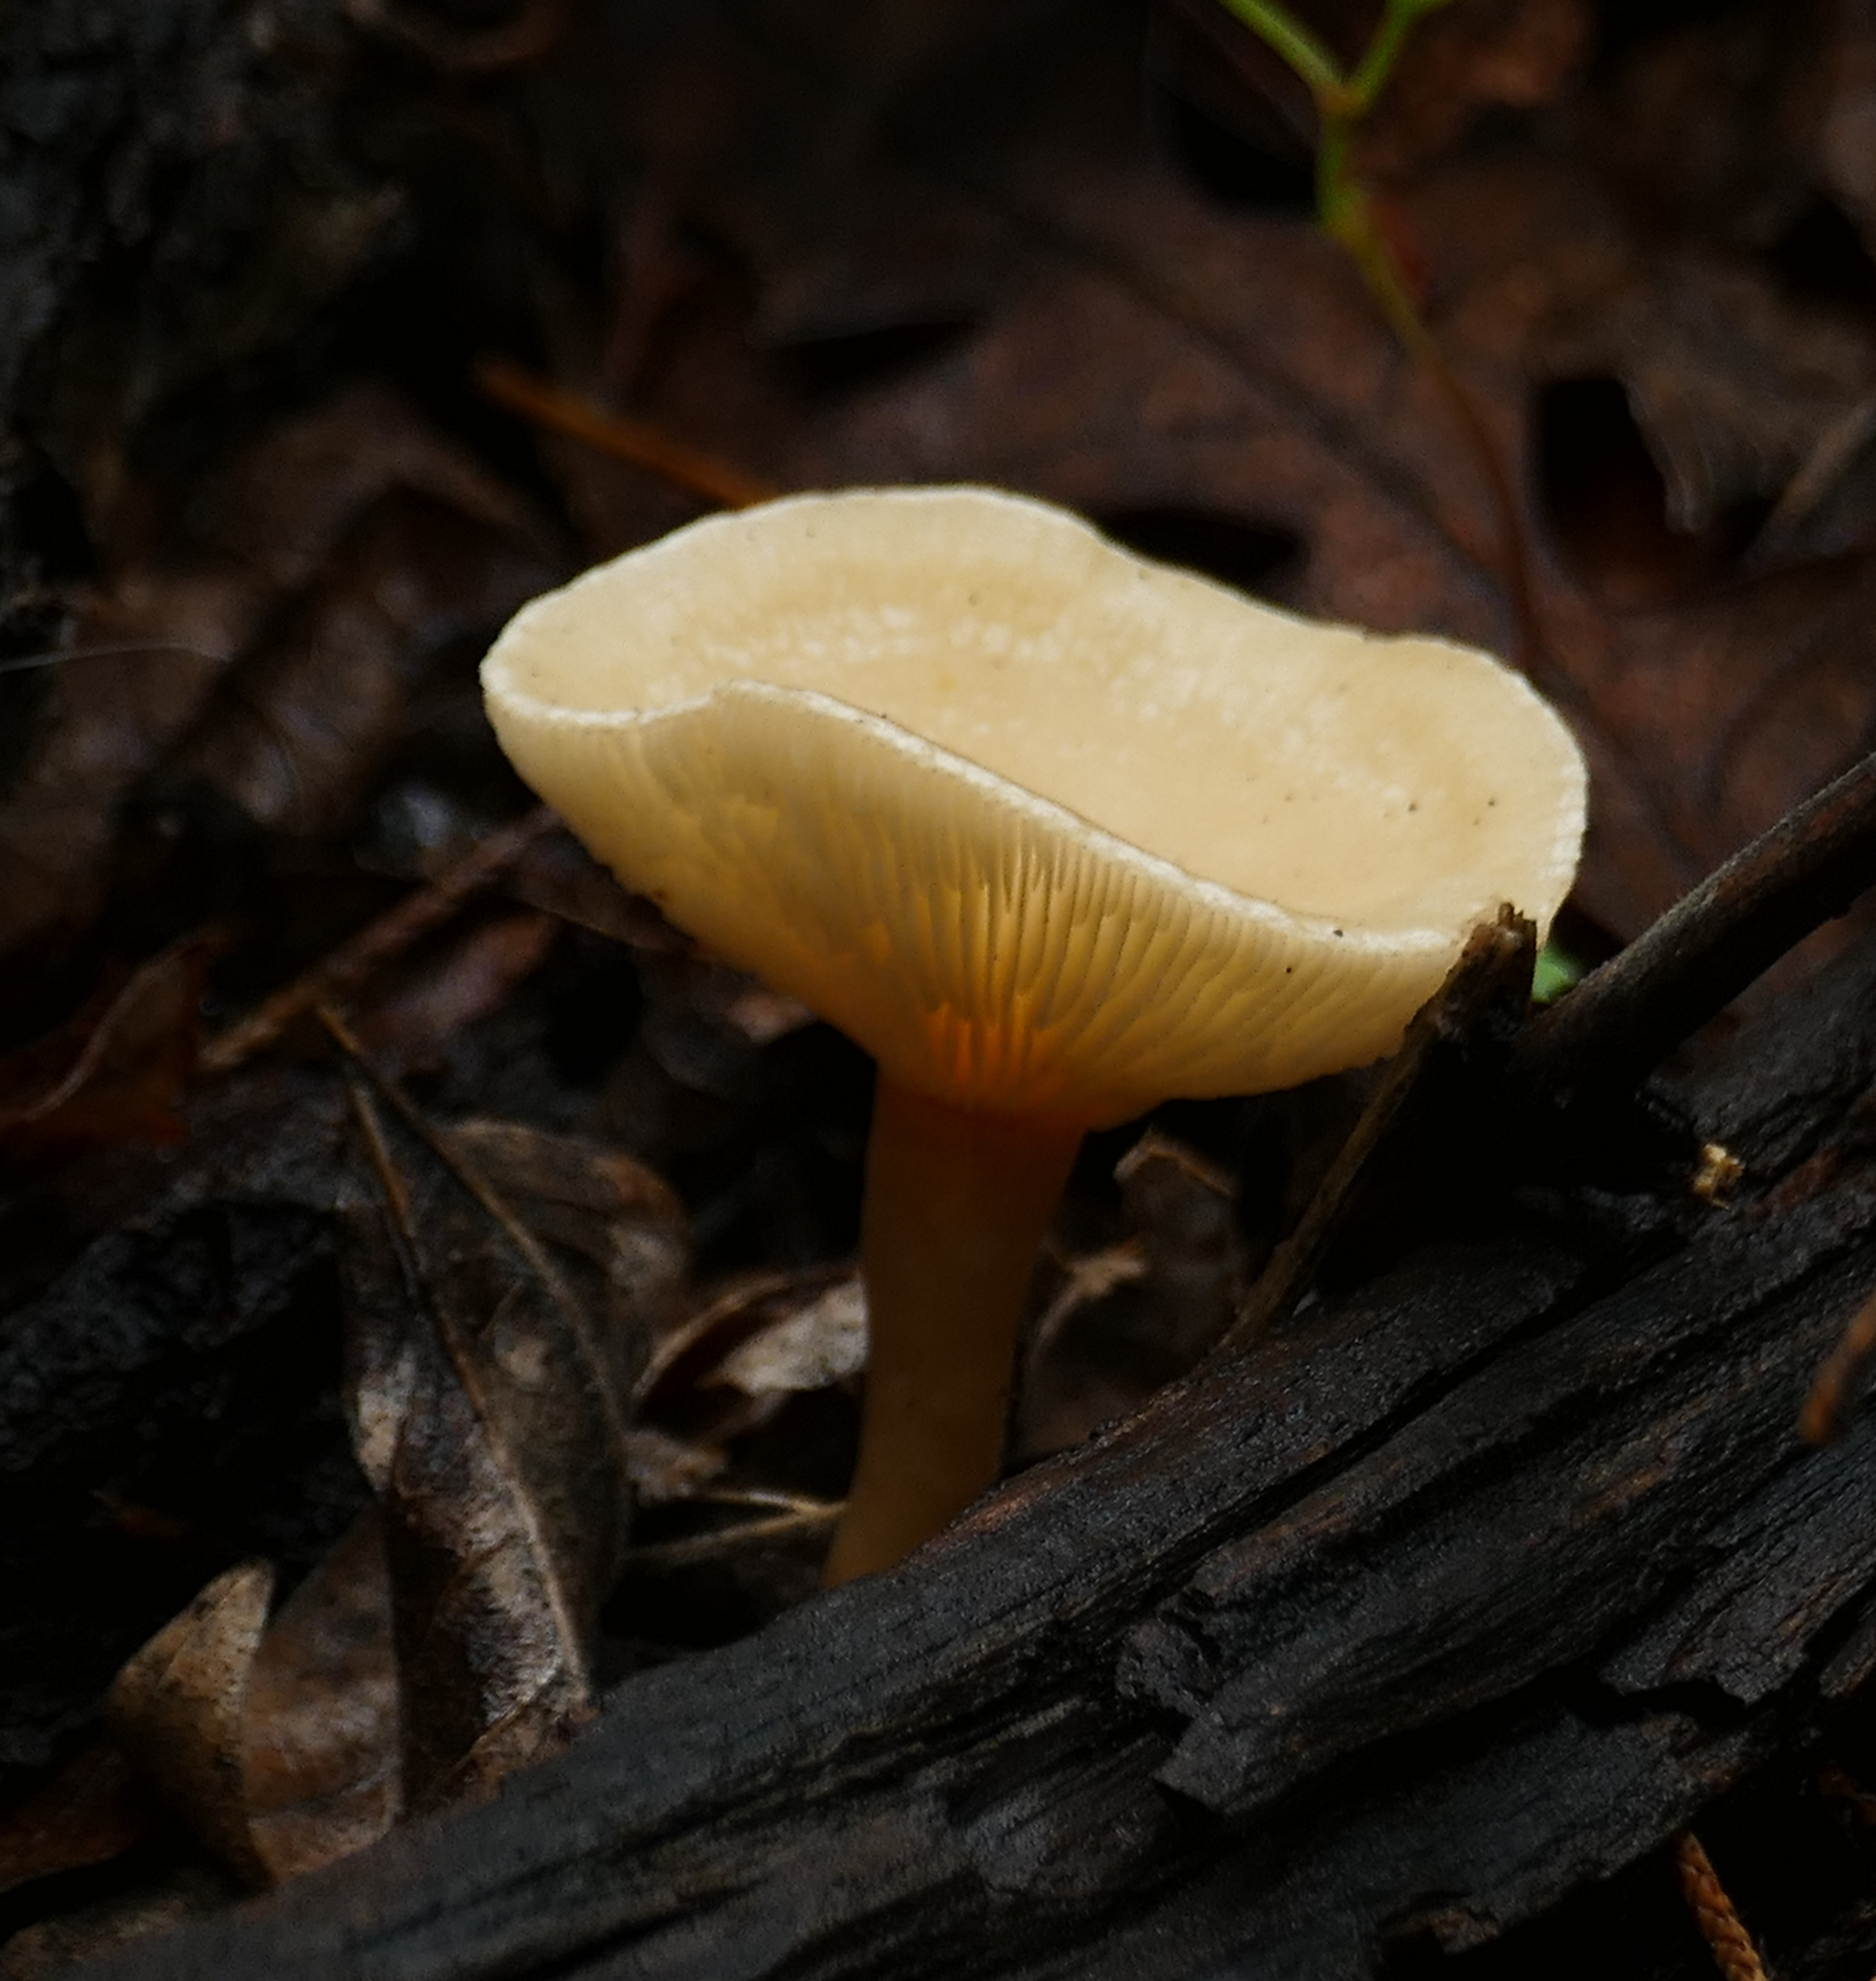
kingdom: Fungi
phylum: Basidiomycota
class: Agaricomycetes
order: Agaricales
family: Tricholomataceae
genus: Infundibulicybe
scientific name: Infundibulicybe gibba
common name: Common funnel
